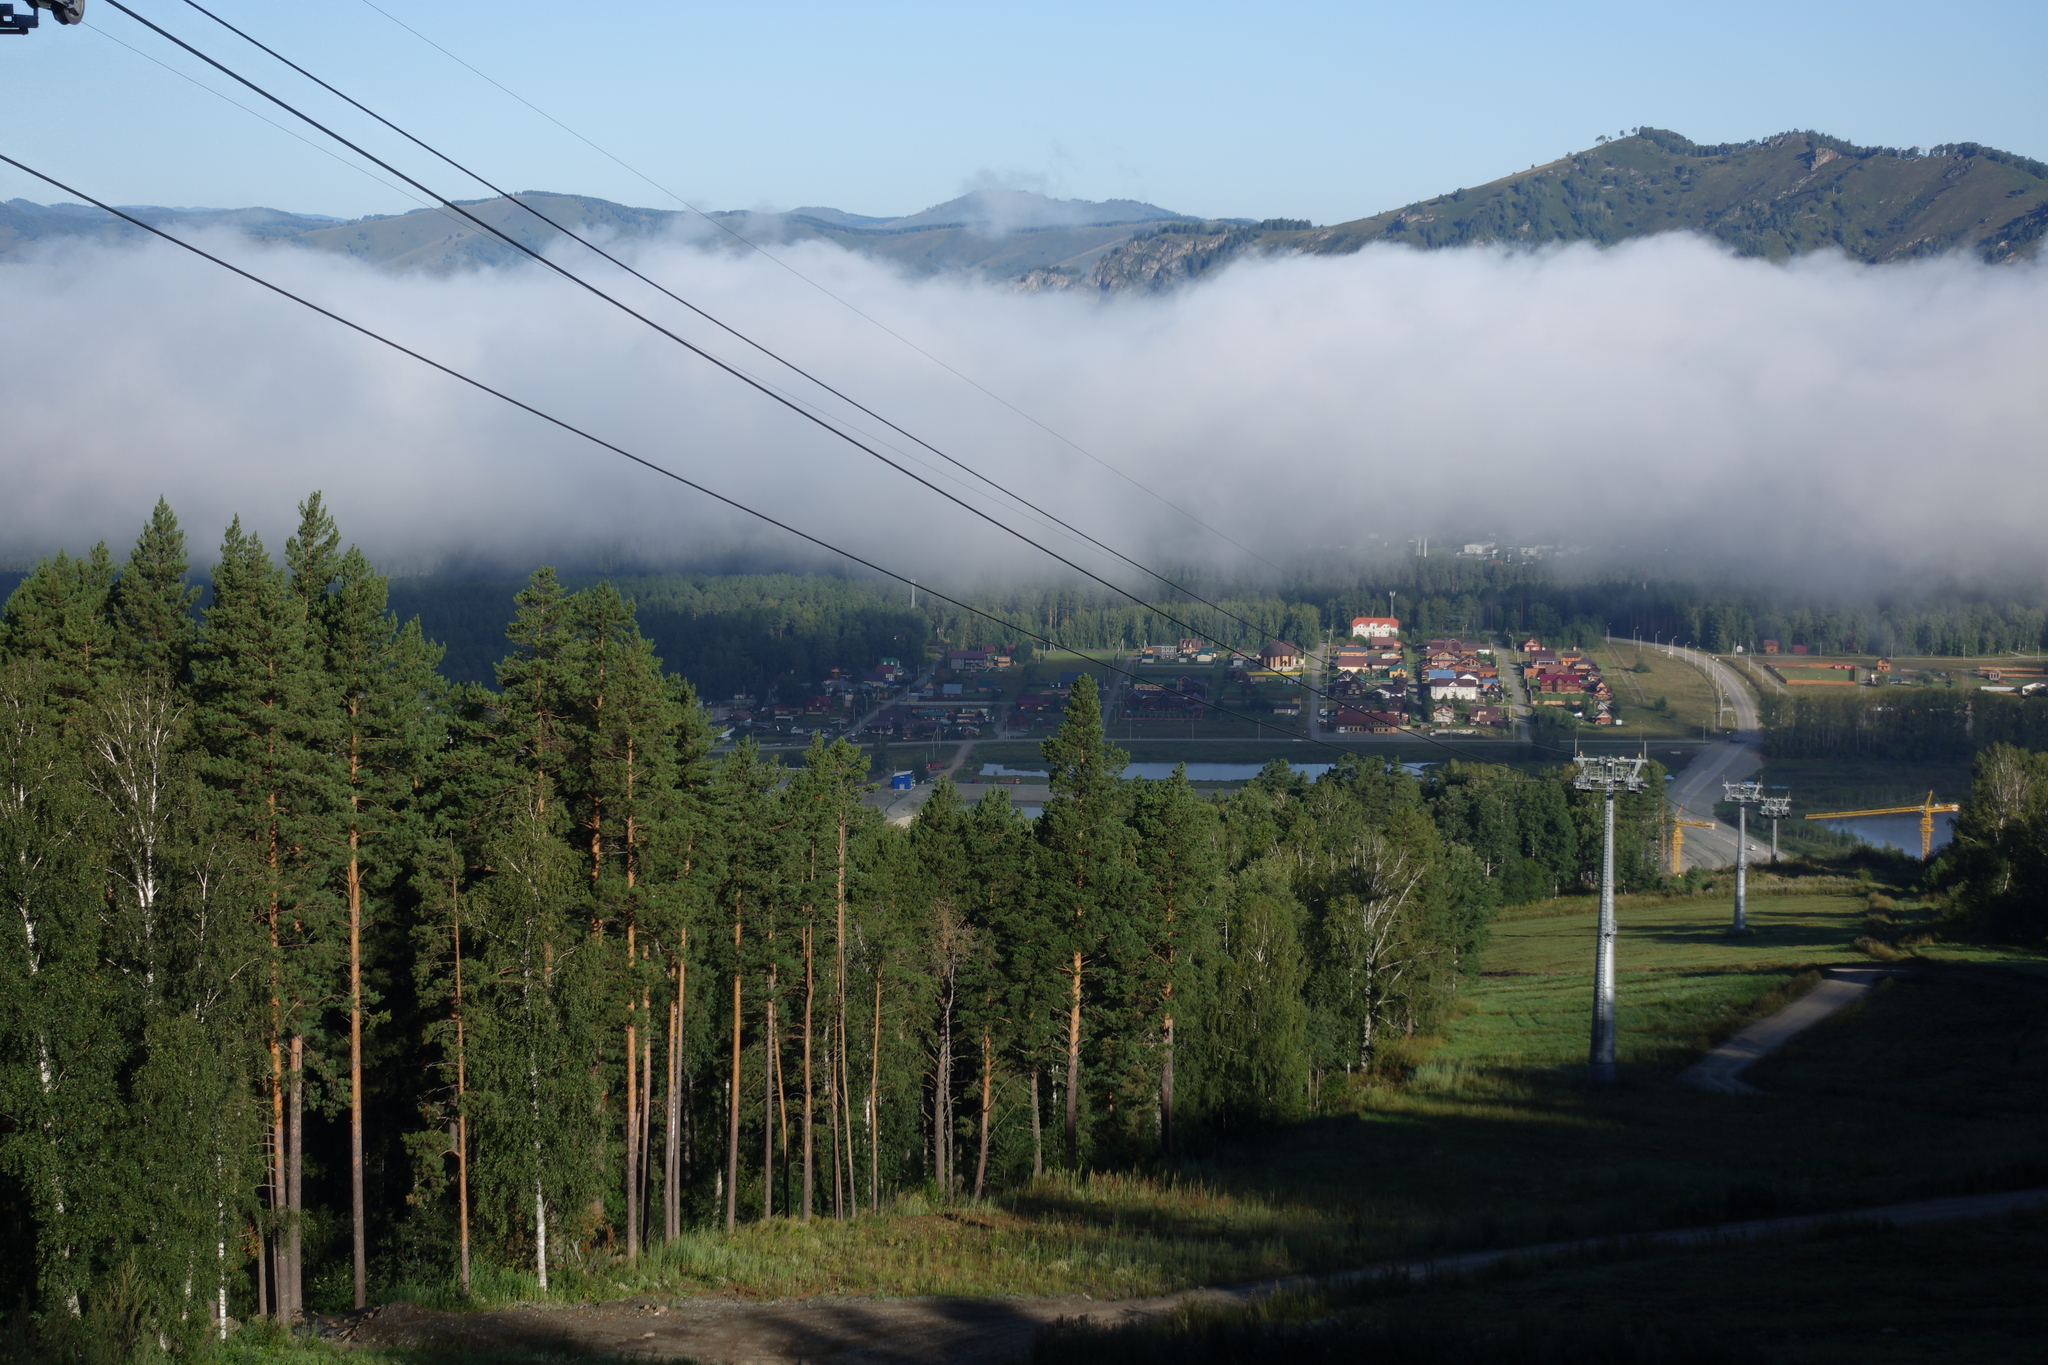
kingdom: Plantae
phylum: Tracheophyta
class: Pinopsida
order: Pinales
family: Pinaceae
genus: Pinus
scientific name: Pinus sylvestris
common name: Scots pine
